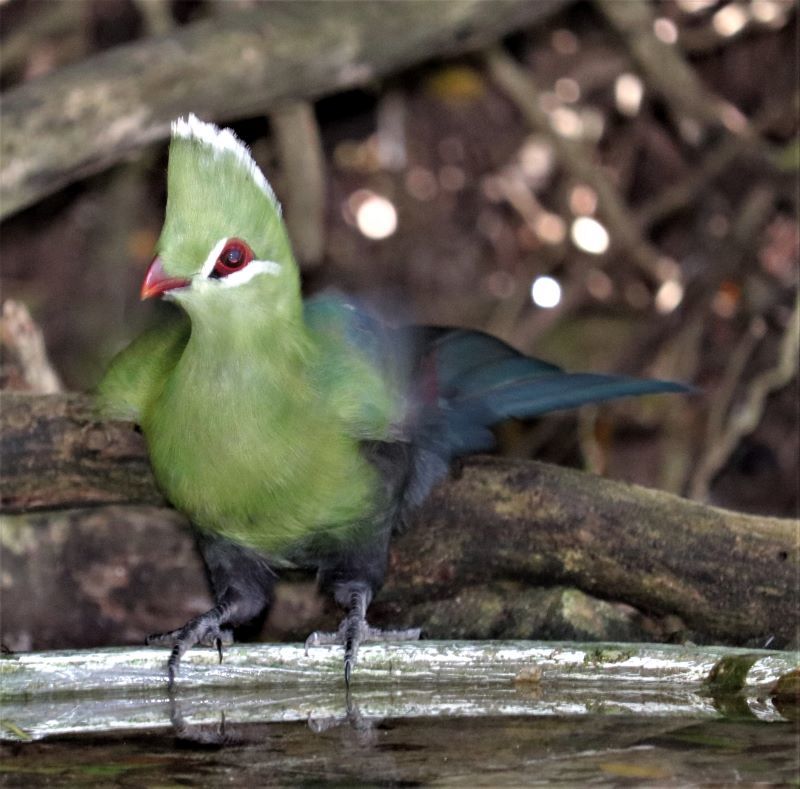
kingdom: Animalia
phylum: Chordata
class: Aves
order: Musophagiformes
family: Musophagidae
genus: Tauraco
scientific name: Tauraco corythaix
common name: Knysna turaco
